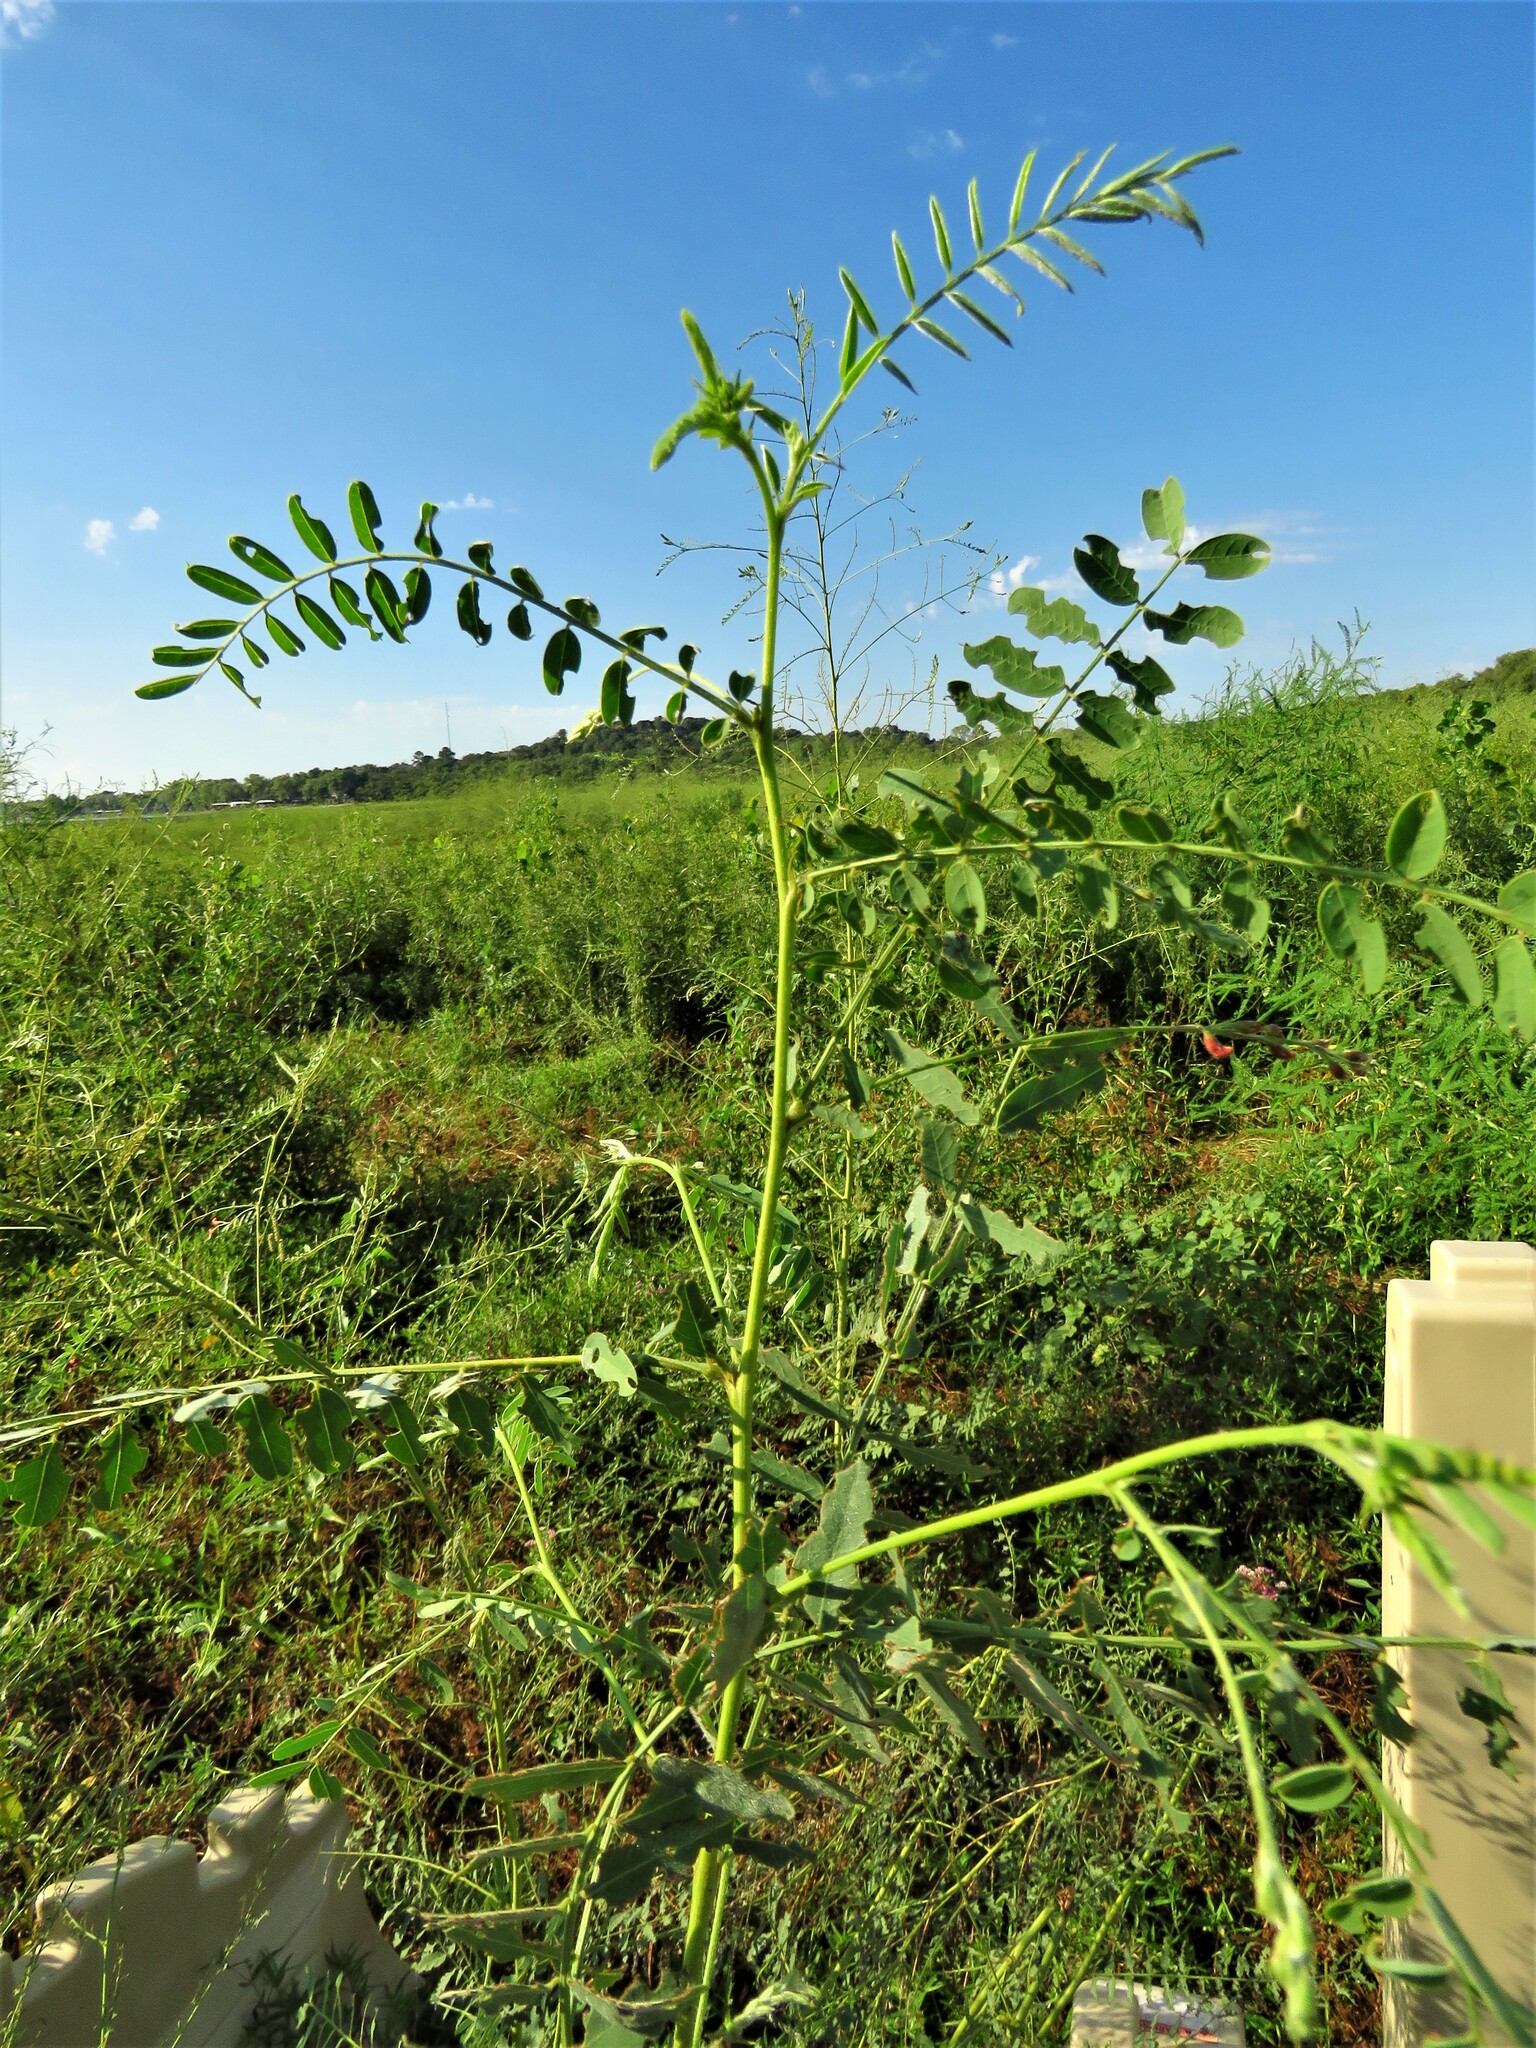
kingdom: Plantae
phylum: Tracheophyta
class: Magnoliopsida
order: Fabales
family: Fabaceae
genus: Sesbania
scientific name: Sesbania vesicaria
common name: Bagpod
